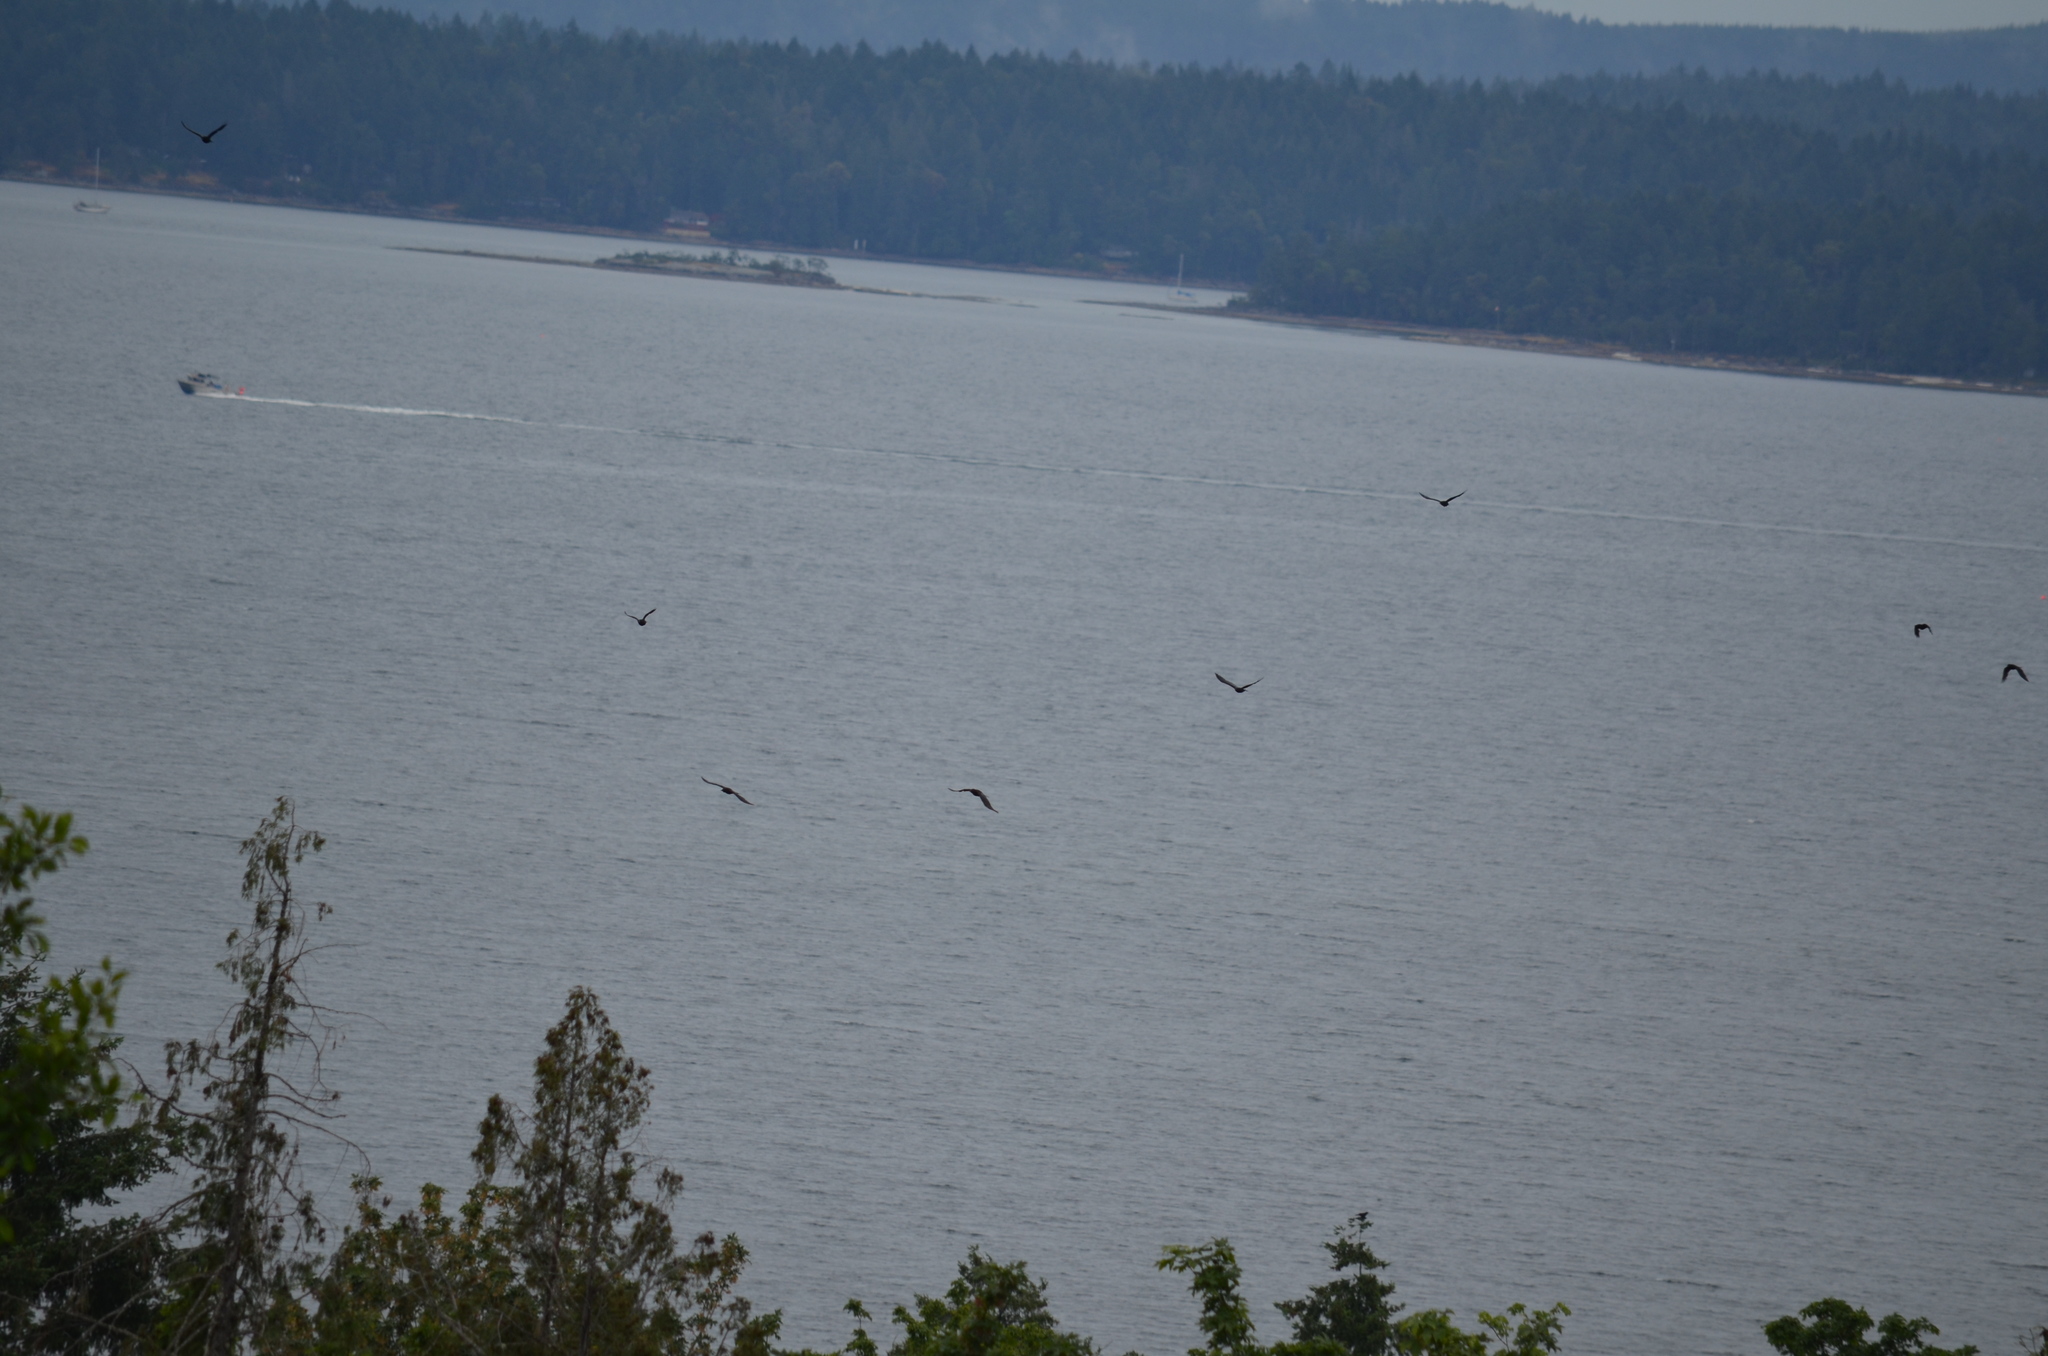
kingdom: Animalia
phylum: Chordata
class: Aves
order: Passeriformes
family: Corvidae
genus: Corvus
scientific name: Corvus brachyrhynchos
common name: American crow
